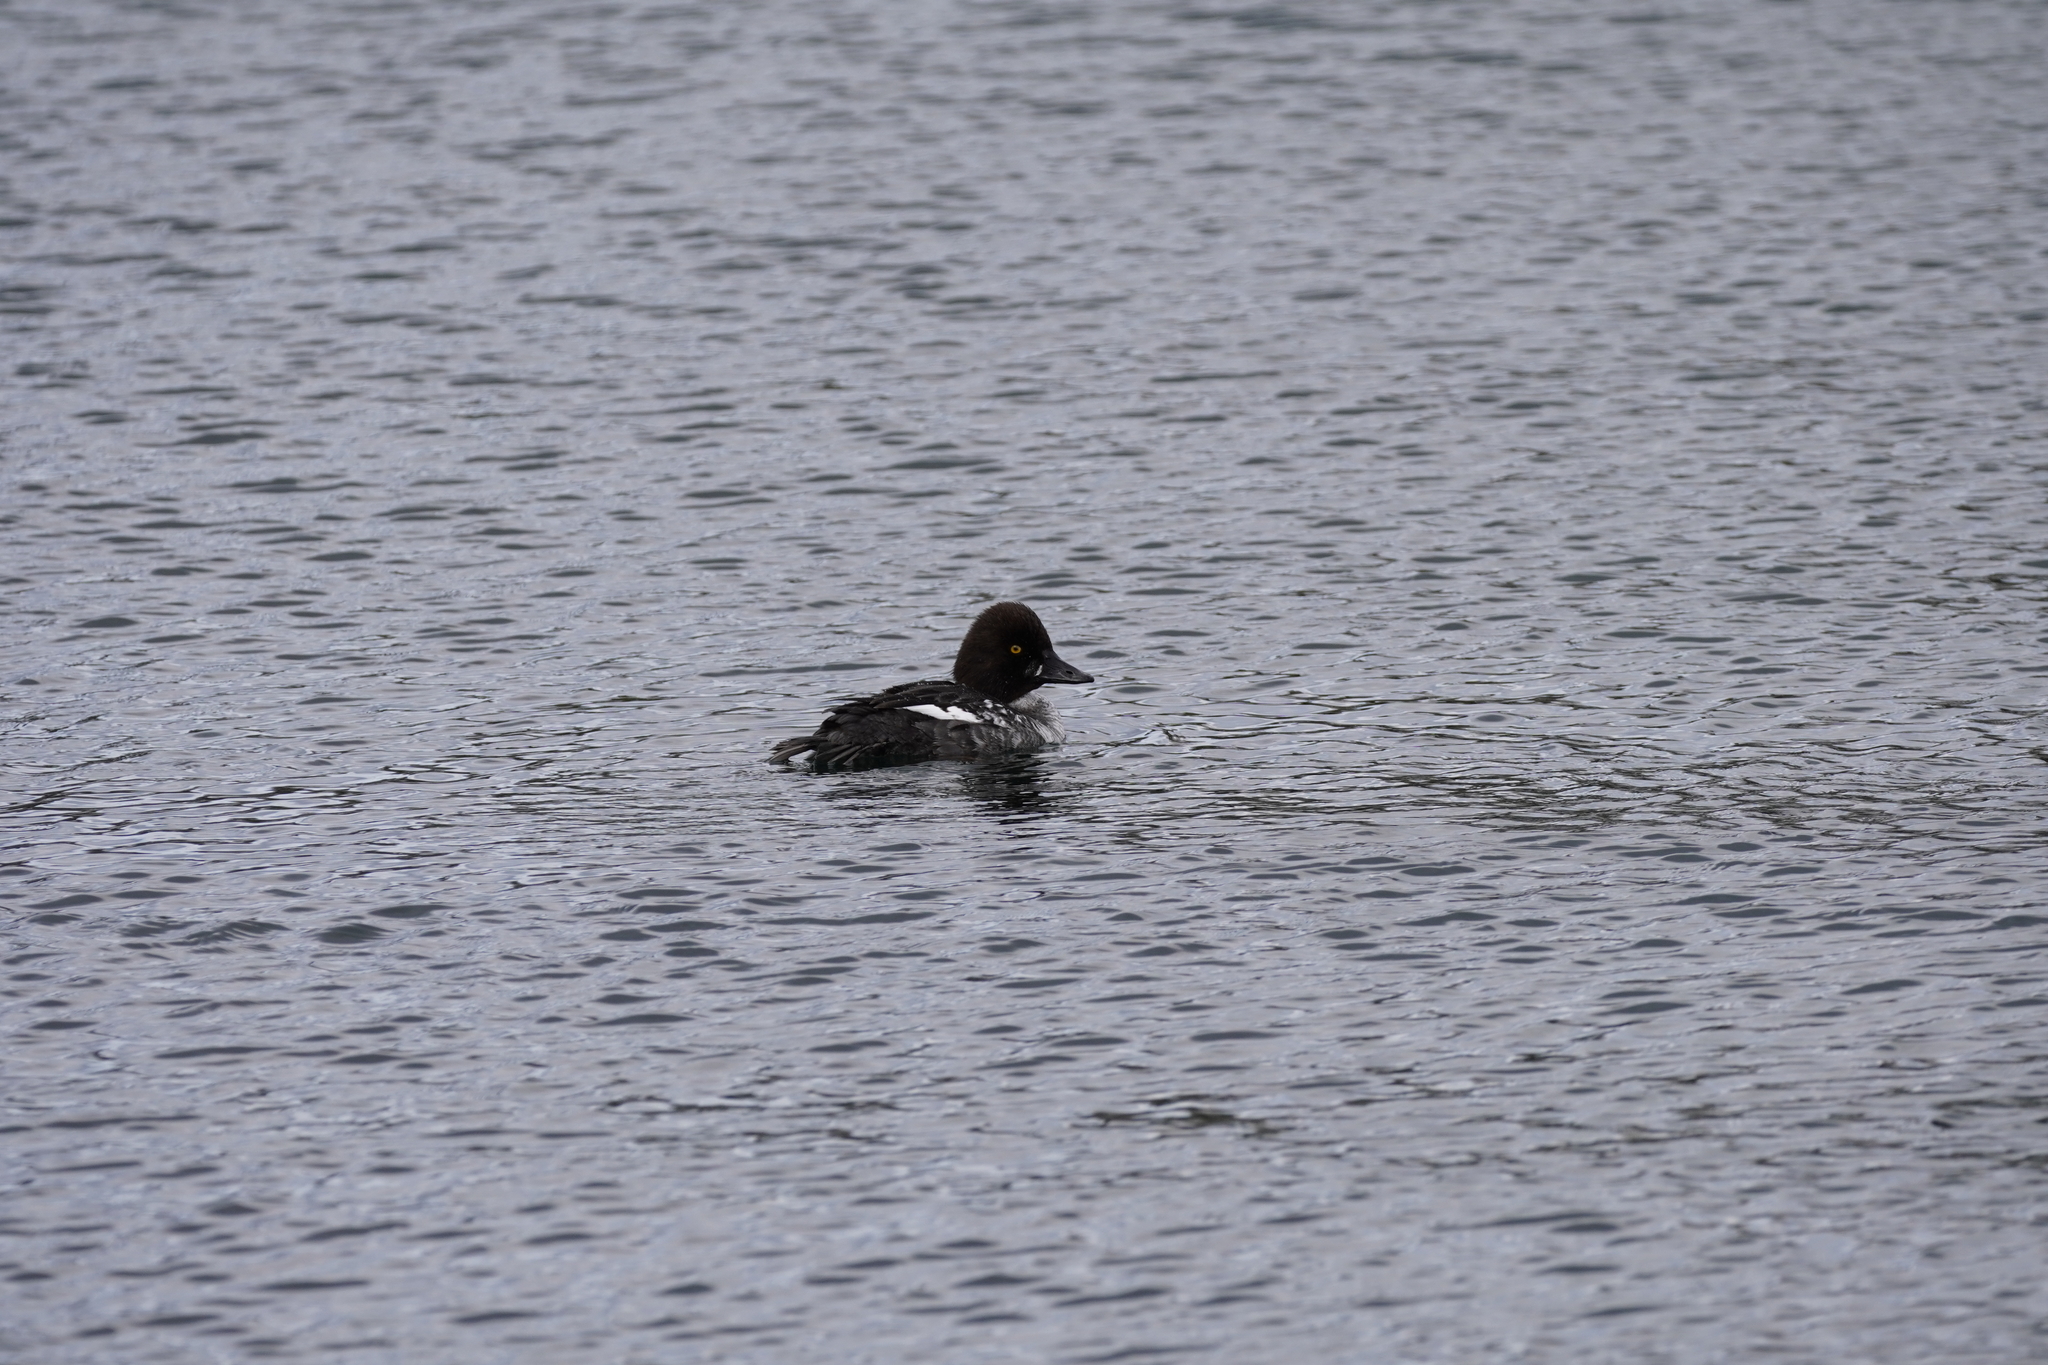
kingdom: Animalia
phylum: Chordata
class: Aves
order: Anseriformes
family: Anatidae
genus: Bucephala
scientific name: Bucephala clangula
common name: Common goldeneye
